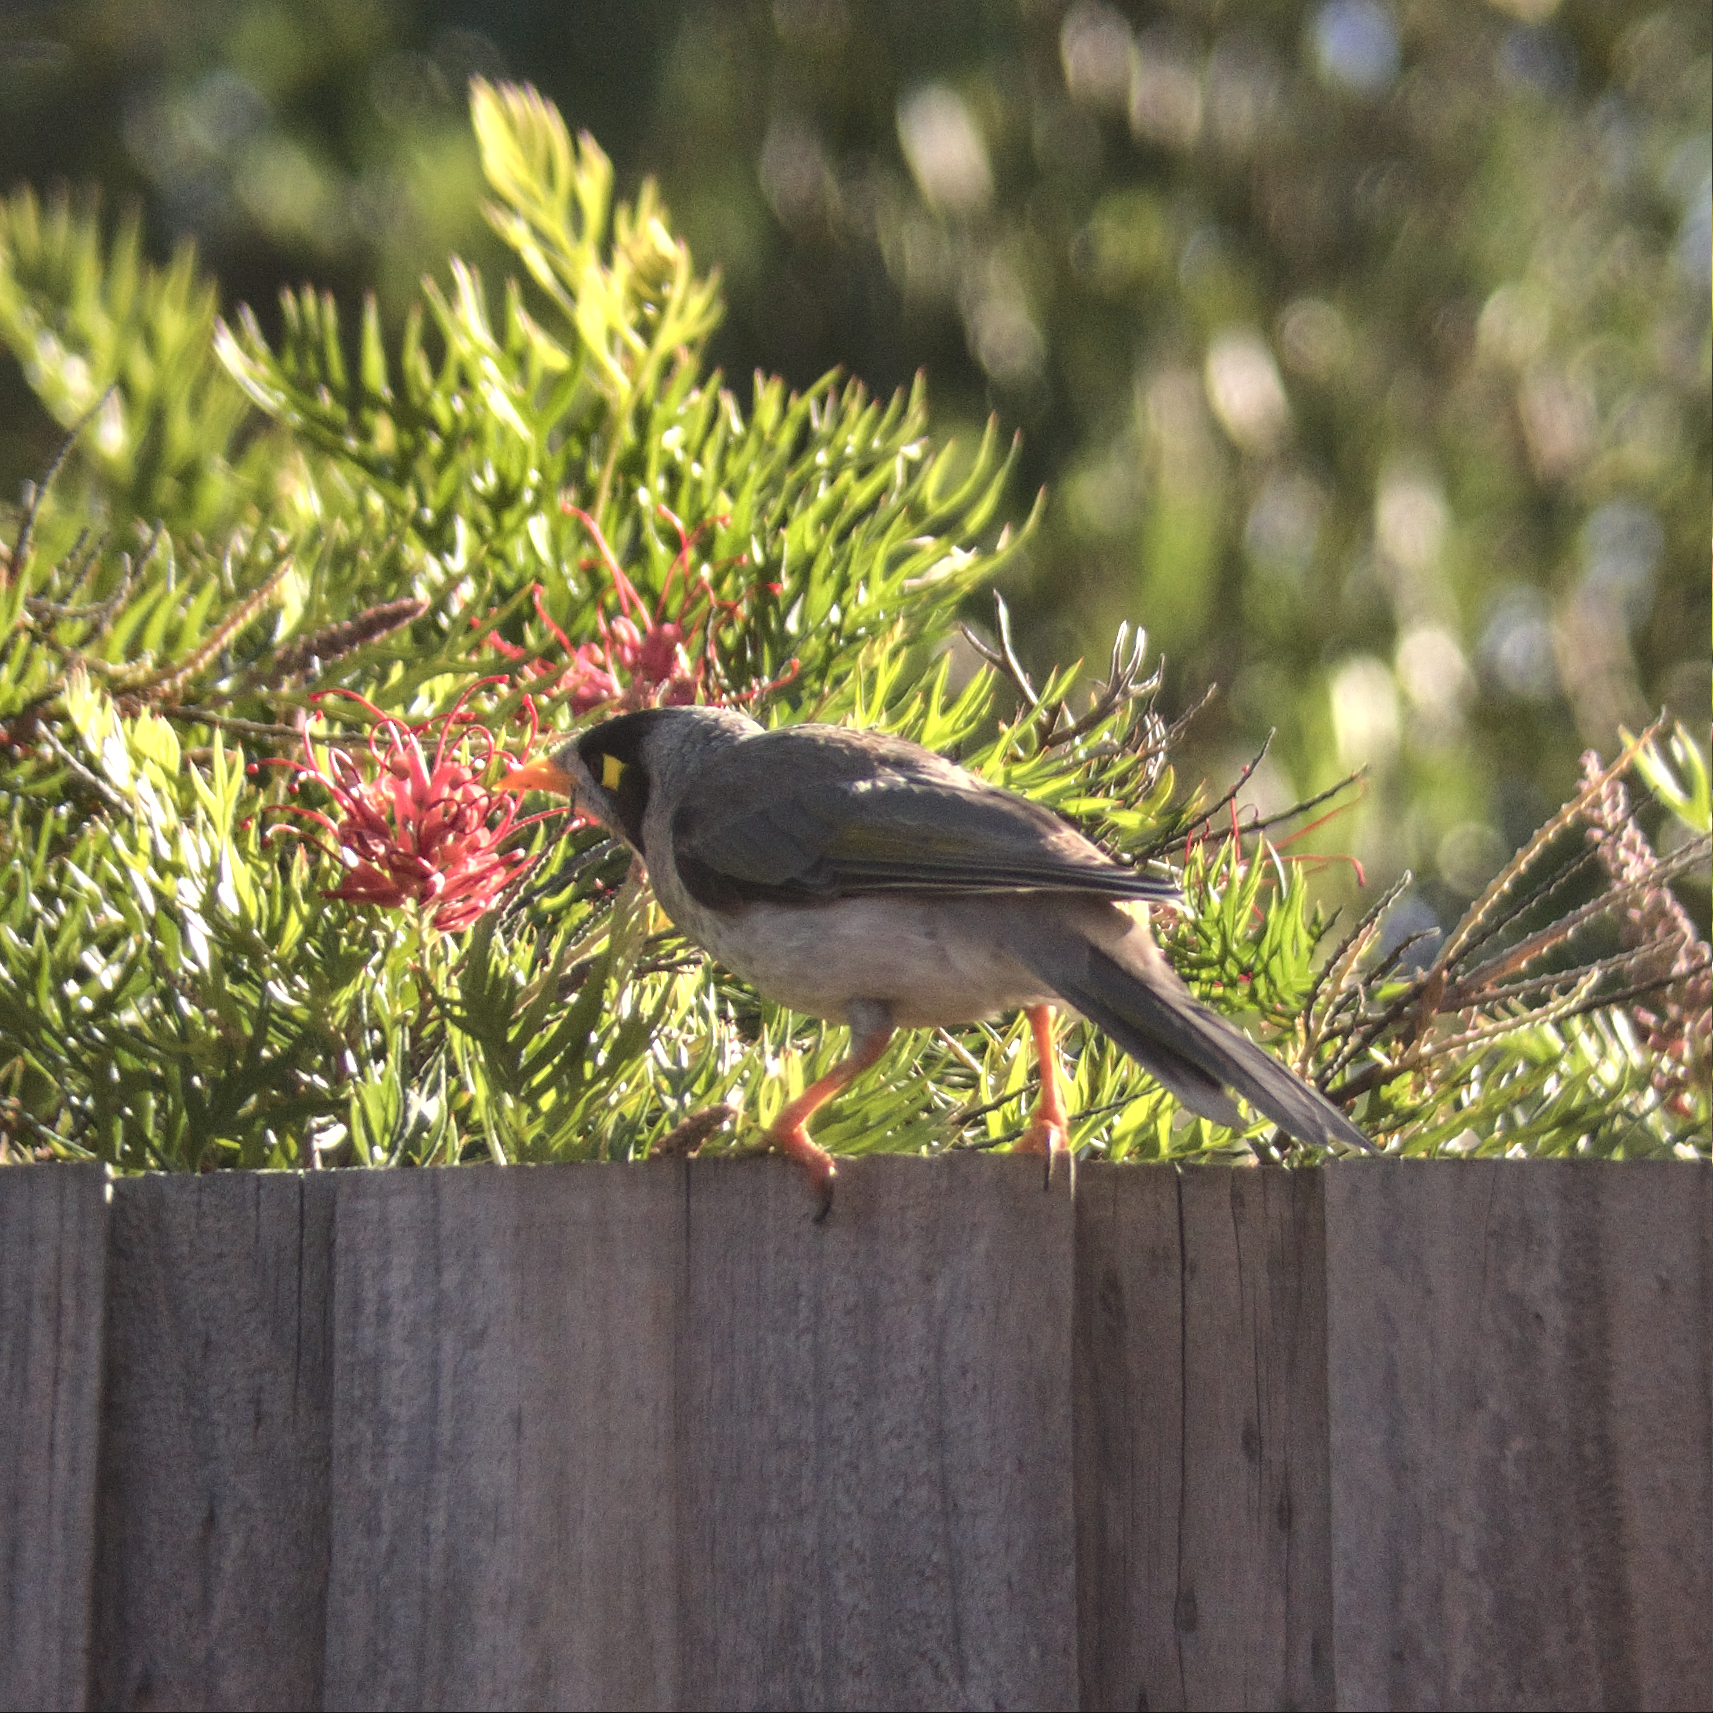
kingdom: Animalia
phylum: Chordata
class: Aves
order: Passeriformes
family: Meliphagidae
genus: Manorina
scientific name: Manorina melanocephala
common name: Noisy miner
